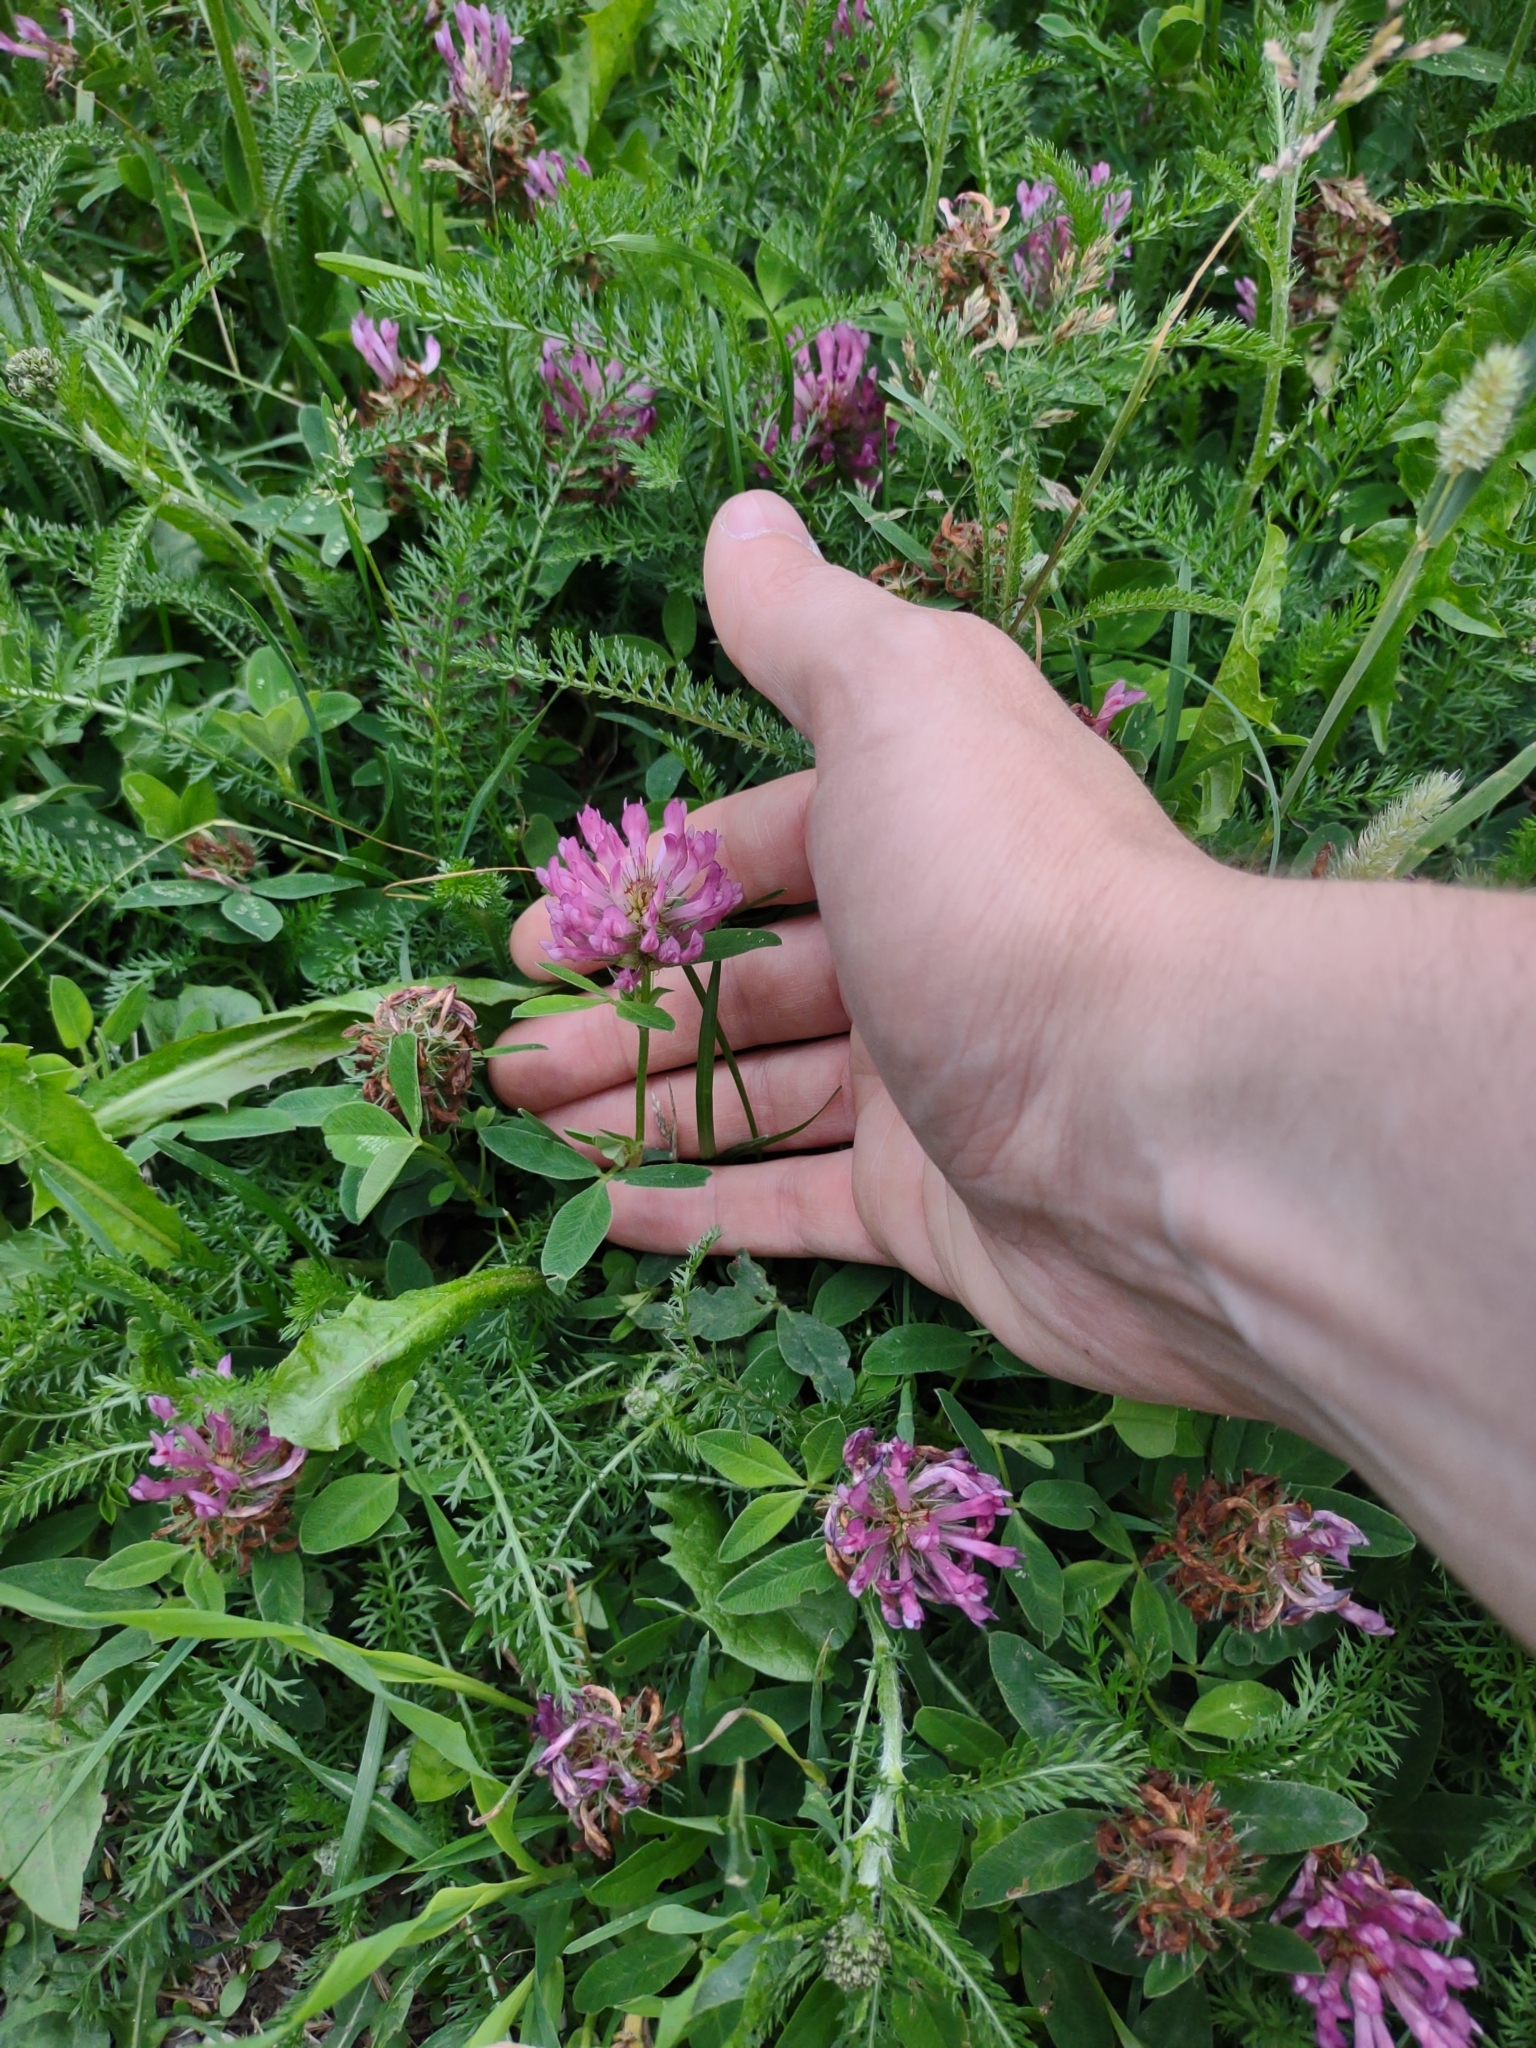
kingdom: Plantae
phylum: Tracheophyta
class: Magnoliopsida
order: Fabales
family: Fabaceae
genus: Trifolium
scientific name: Trifolium medium
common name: Zigzag clover
